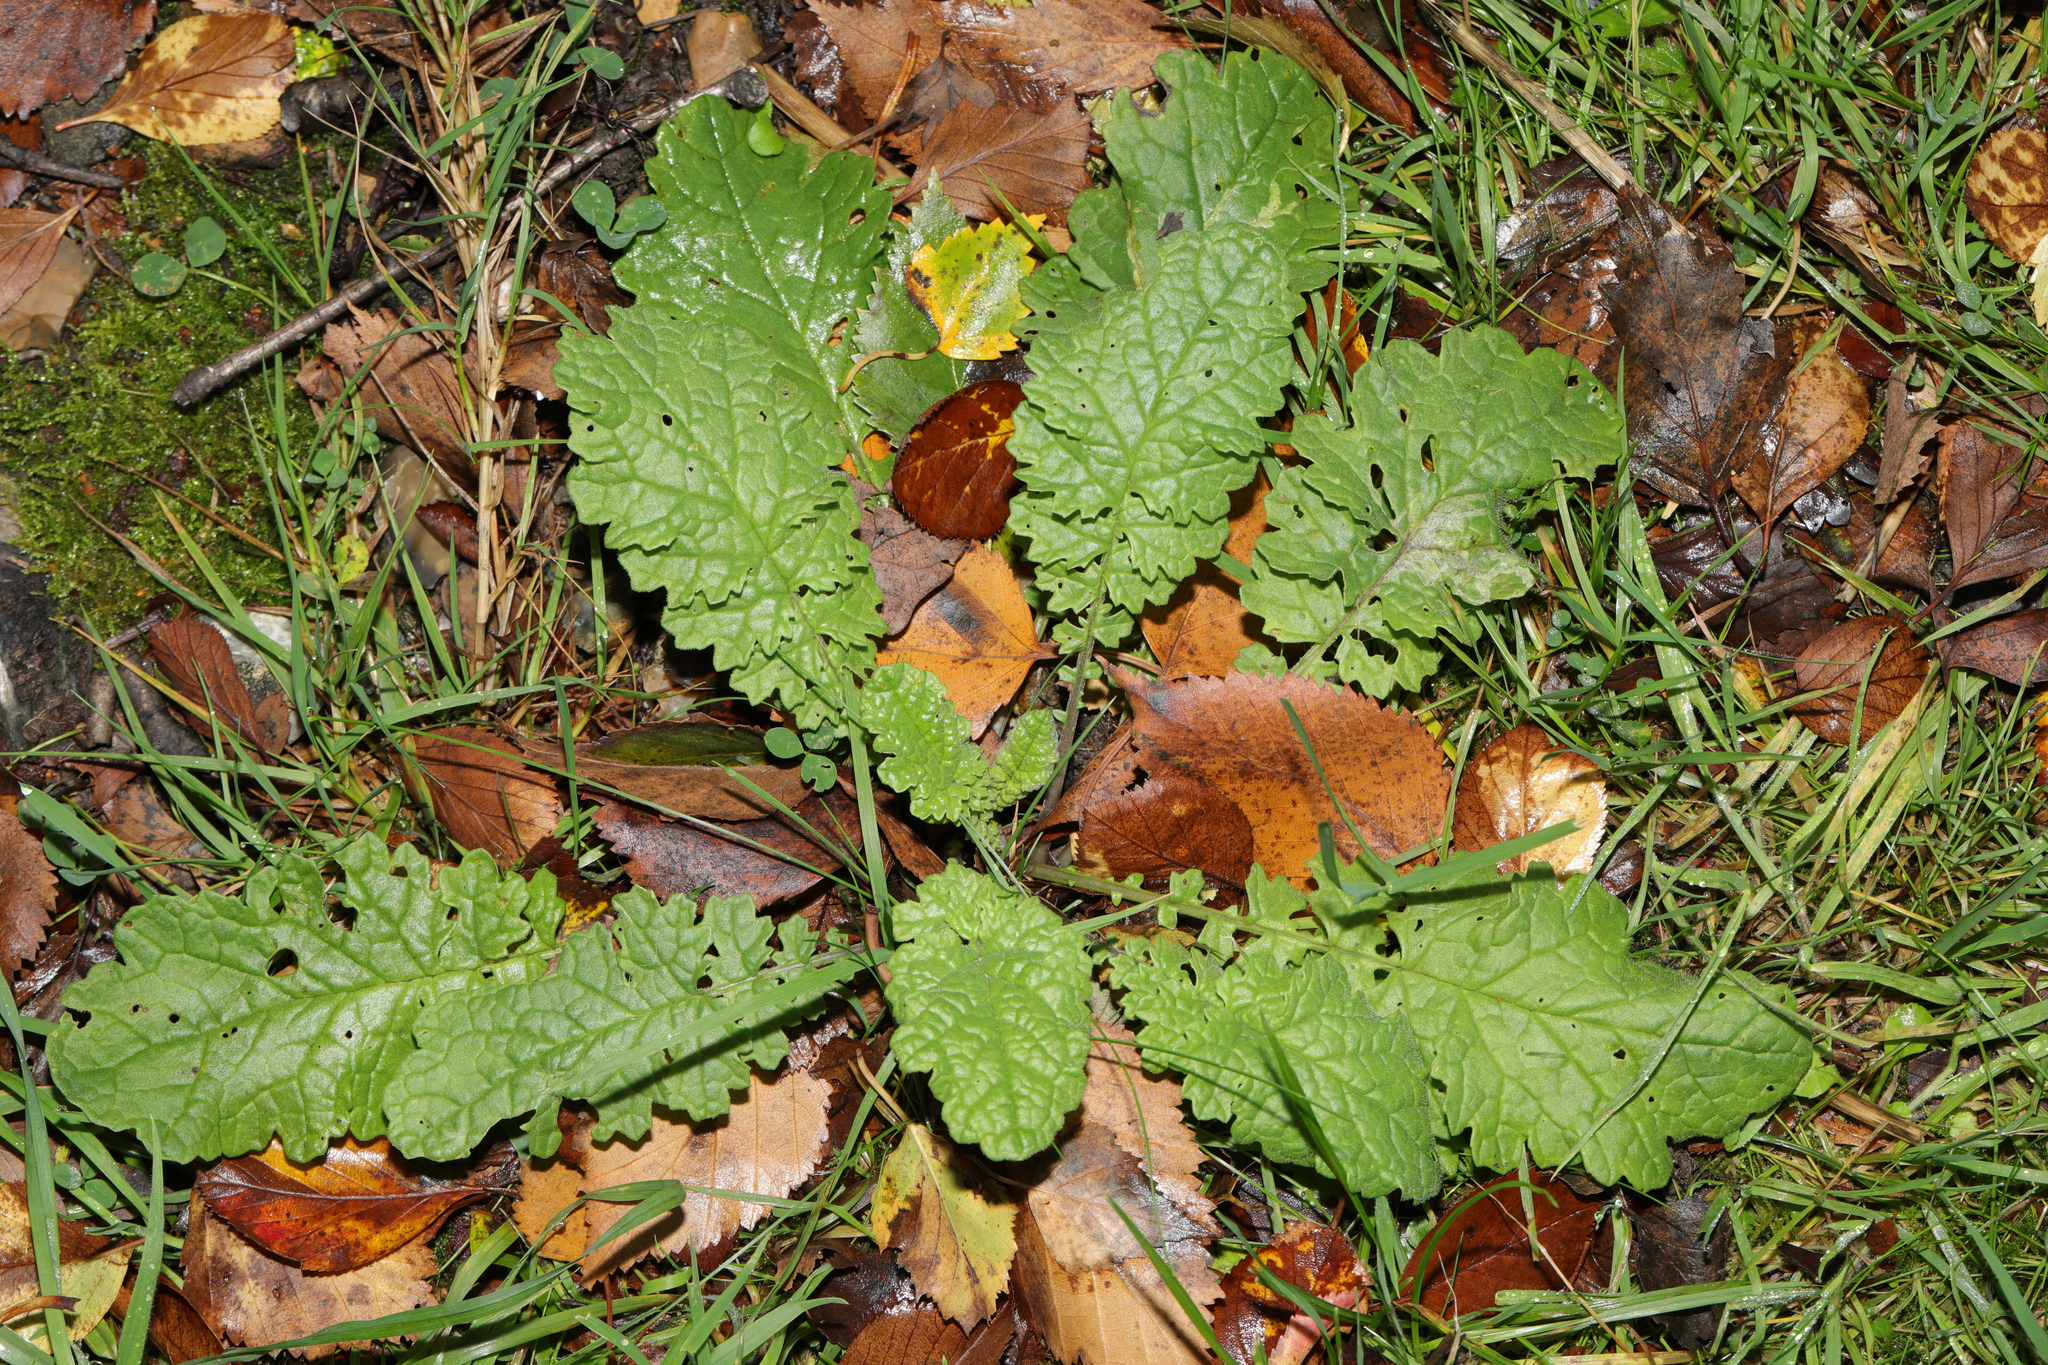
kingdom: Plantae
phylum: Tracheophyta
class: Magnoliopsida
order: Asterales
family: Asteraceae
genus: Jacobaea
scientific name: Jacobaea vulgaris
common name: Stinking willie
